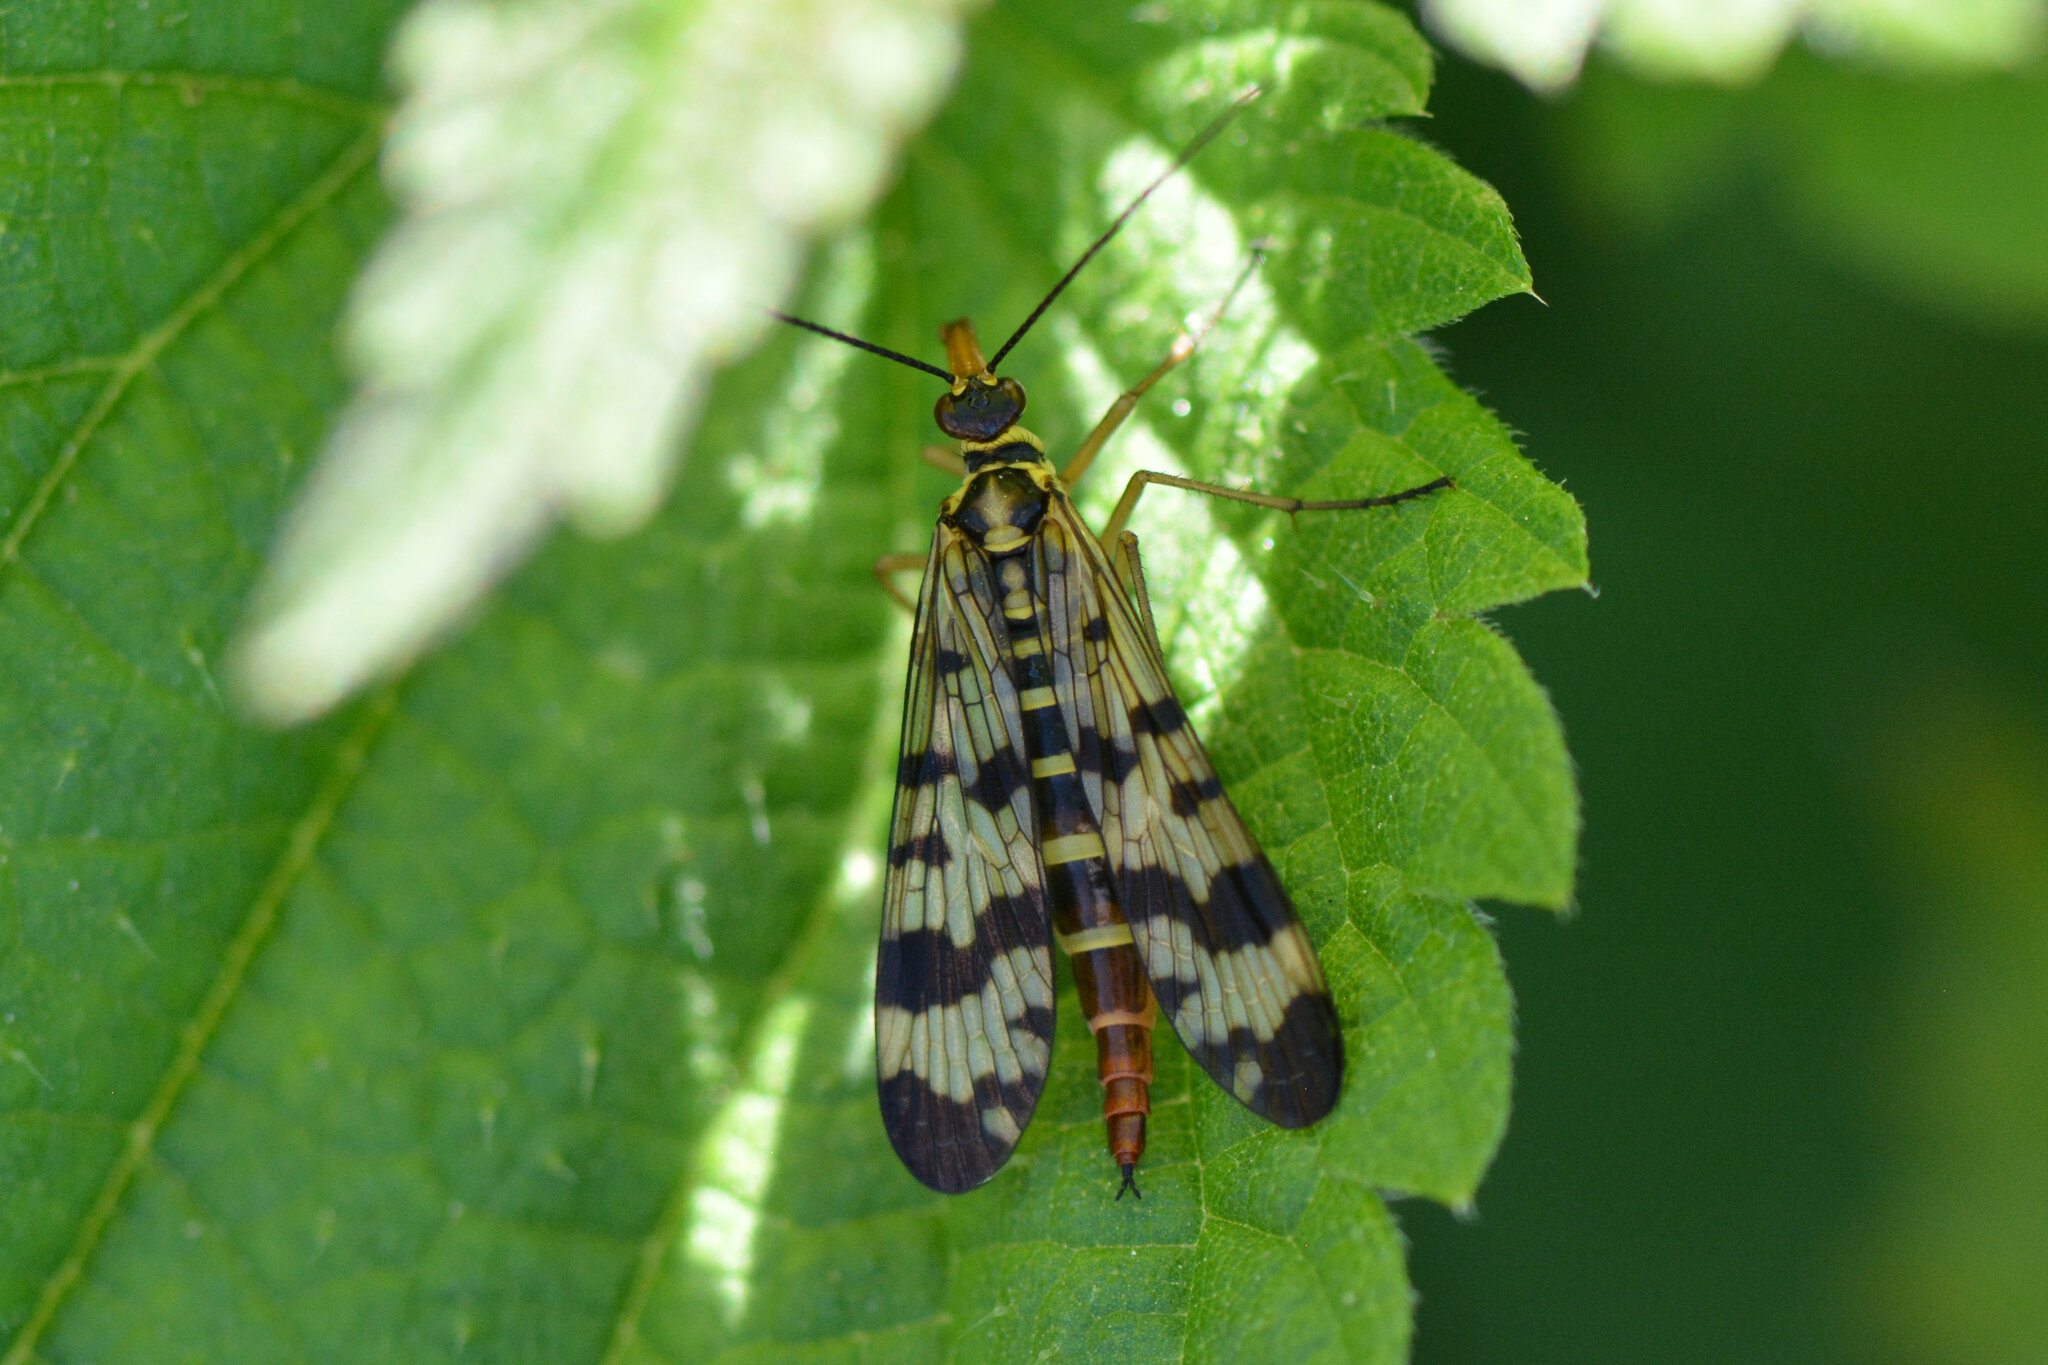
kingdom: Animalia
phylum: Arthropoda
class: Insecta
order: Mecoptera
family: Panorpidae
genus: Panorpa
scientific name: Panorpa communis
